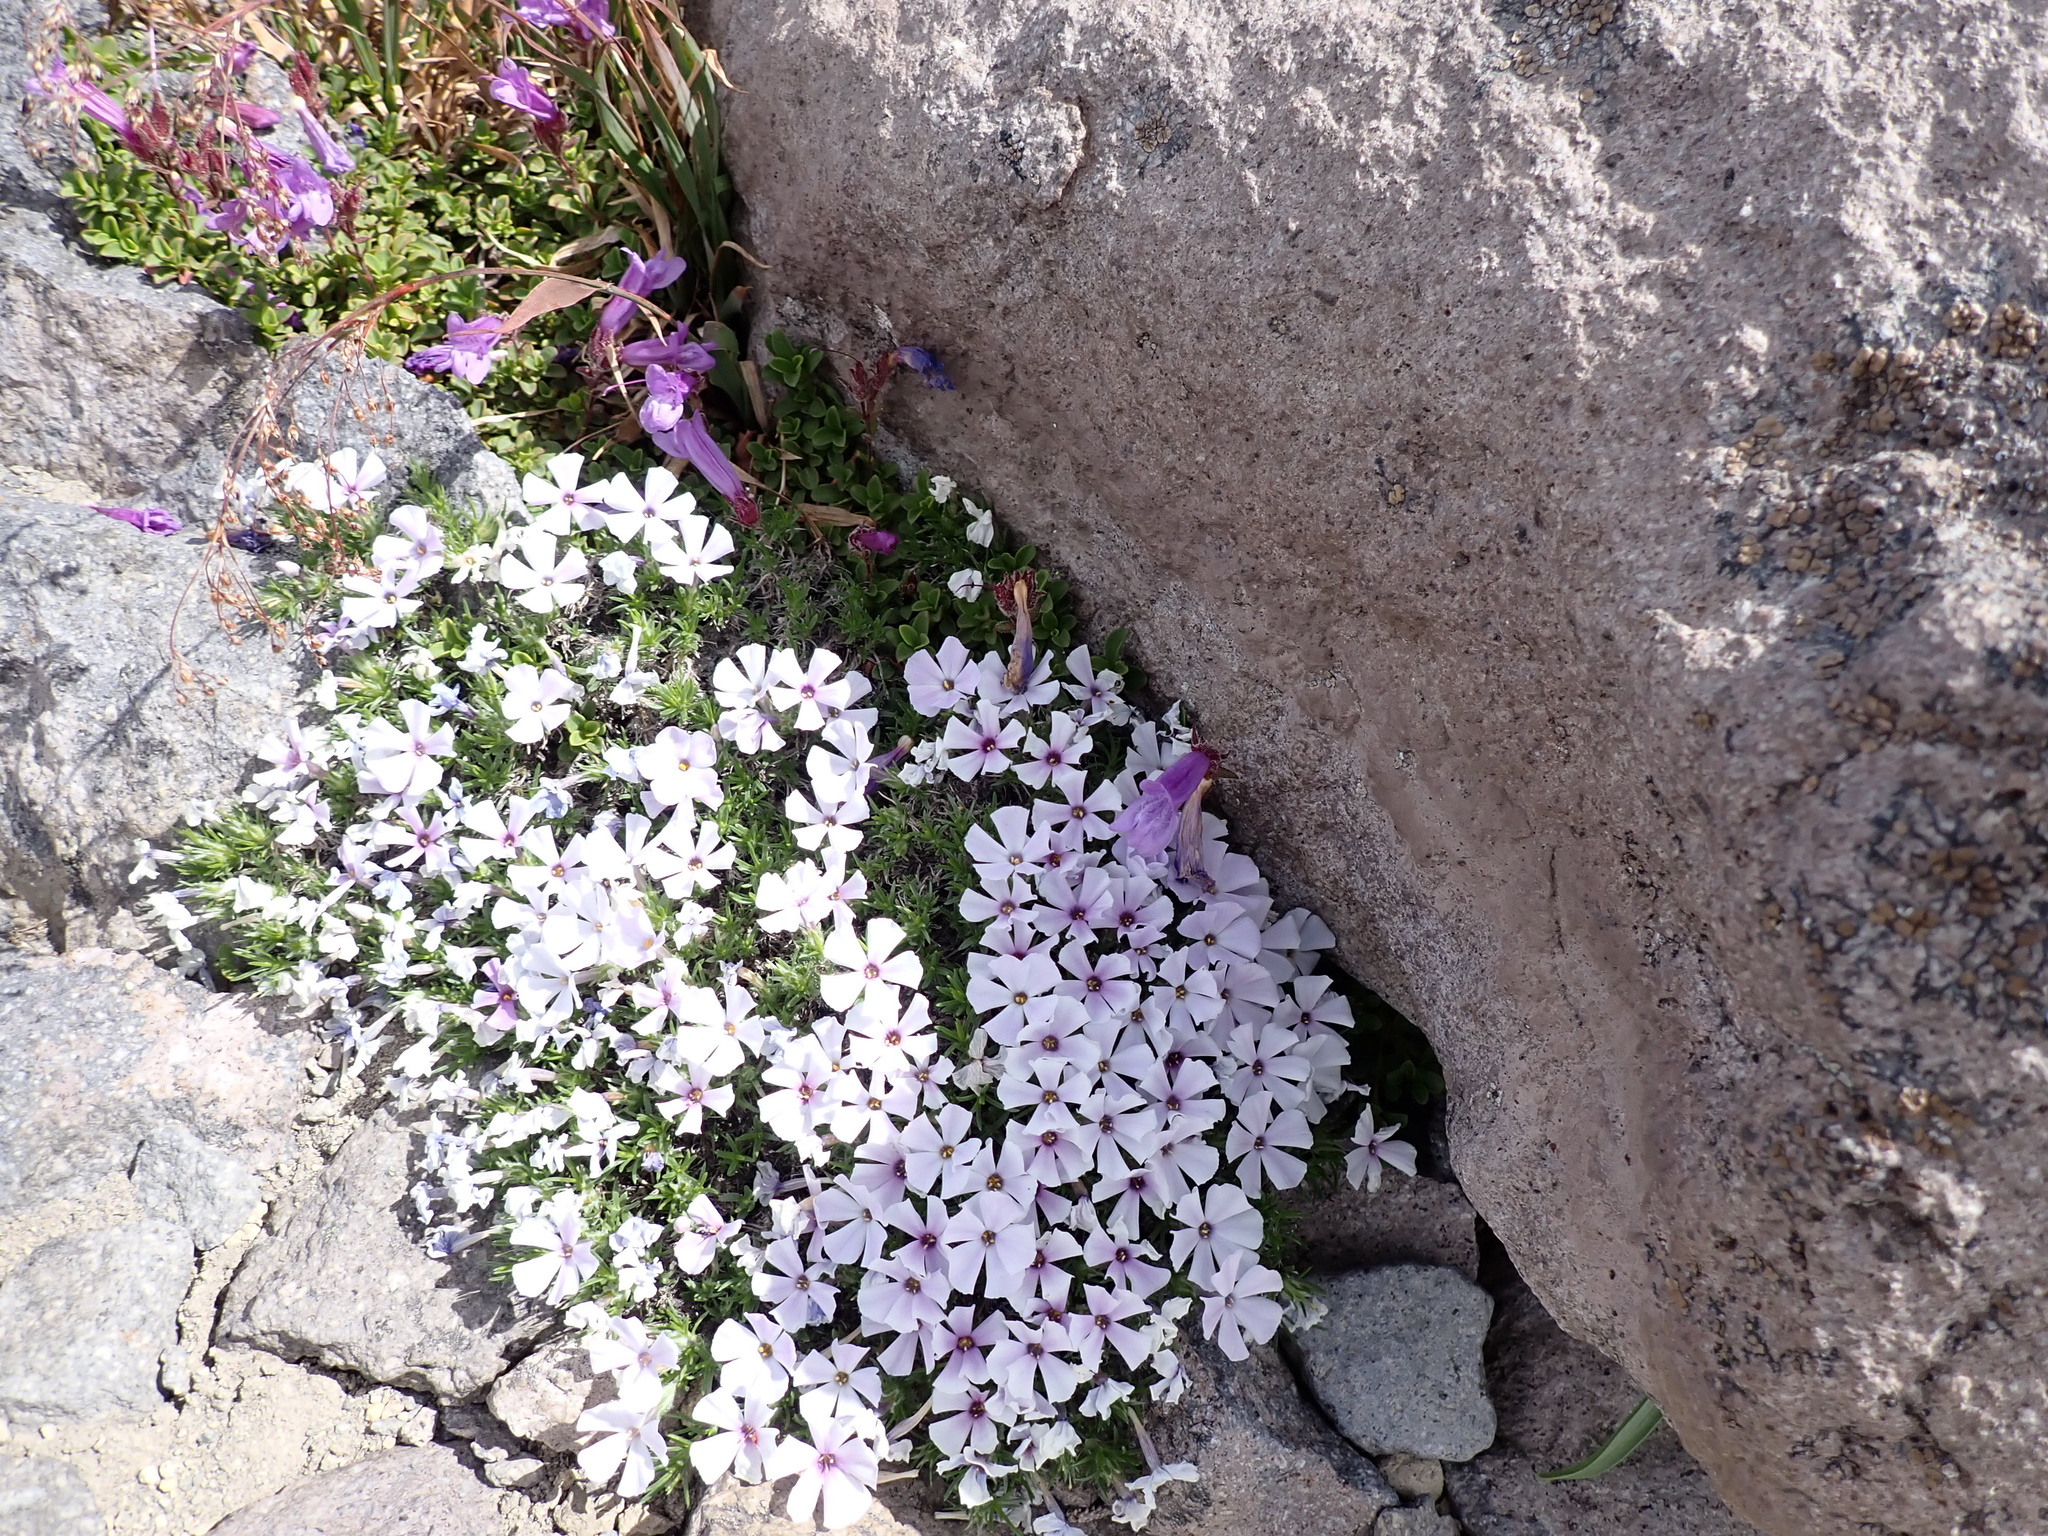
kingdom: Plantae
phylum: Tracheophyta
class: Magnoliopsida
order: Ericales
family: Polemoniaceae
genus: Phlox
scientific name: Phlox diffusa
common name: Mat phlox
